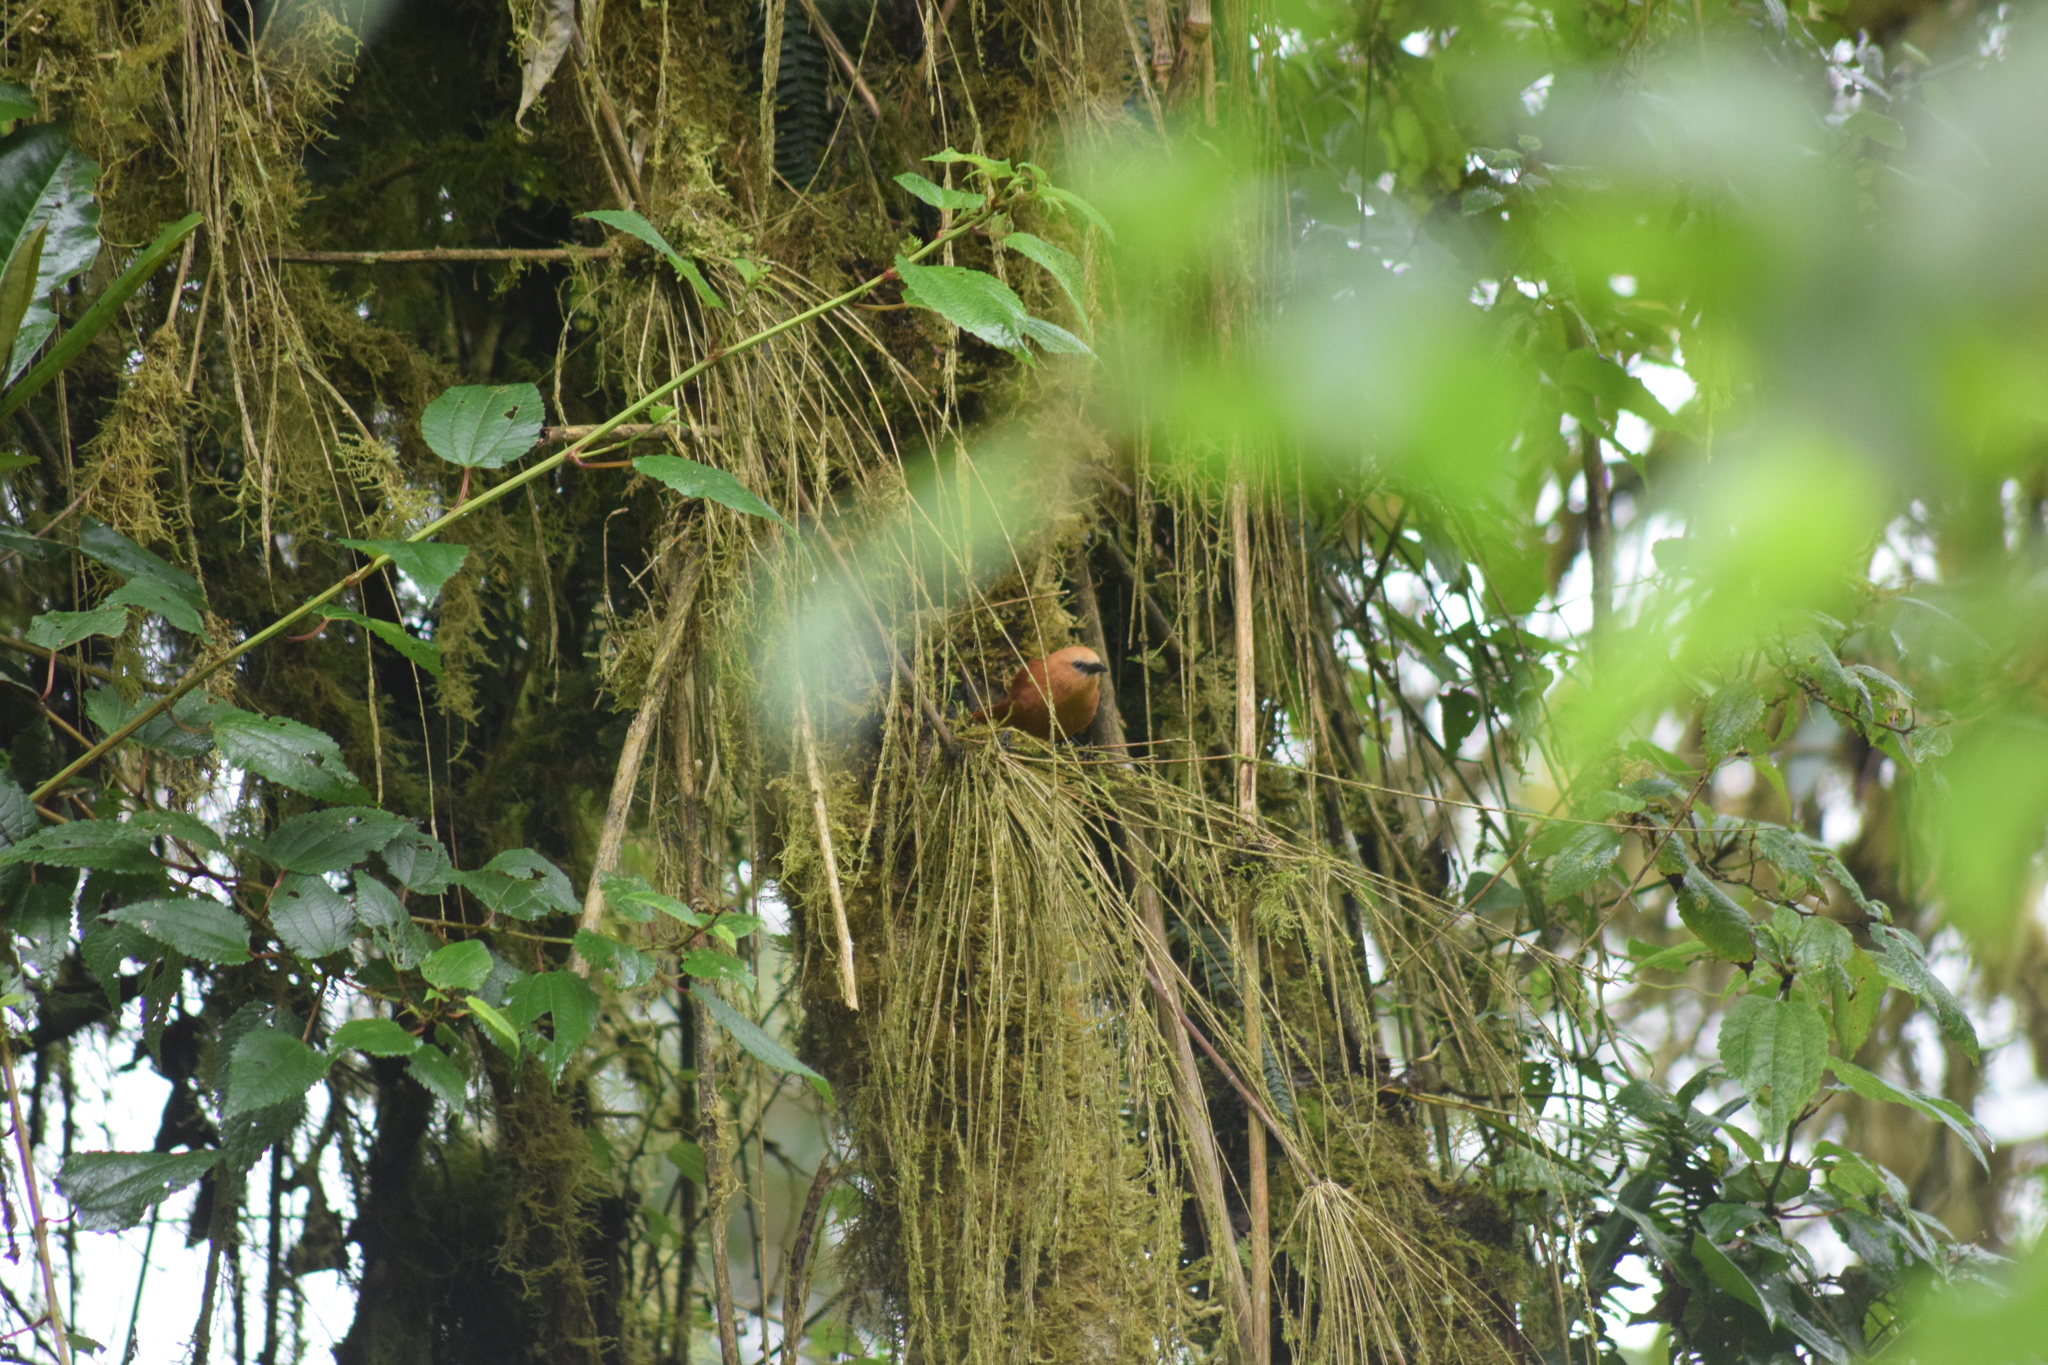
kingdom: Animalia
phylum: Chordata
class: Aves
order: Passeriformes
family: Troglodytidae
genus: Cinnycerthia
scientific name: Cinnycerthia unirufa
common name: Rufous wren
